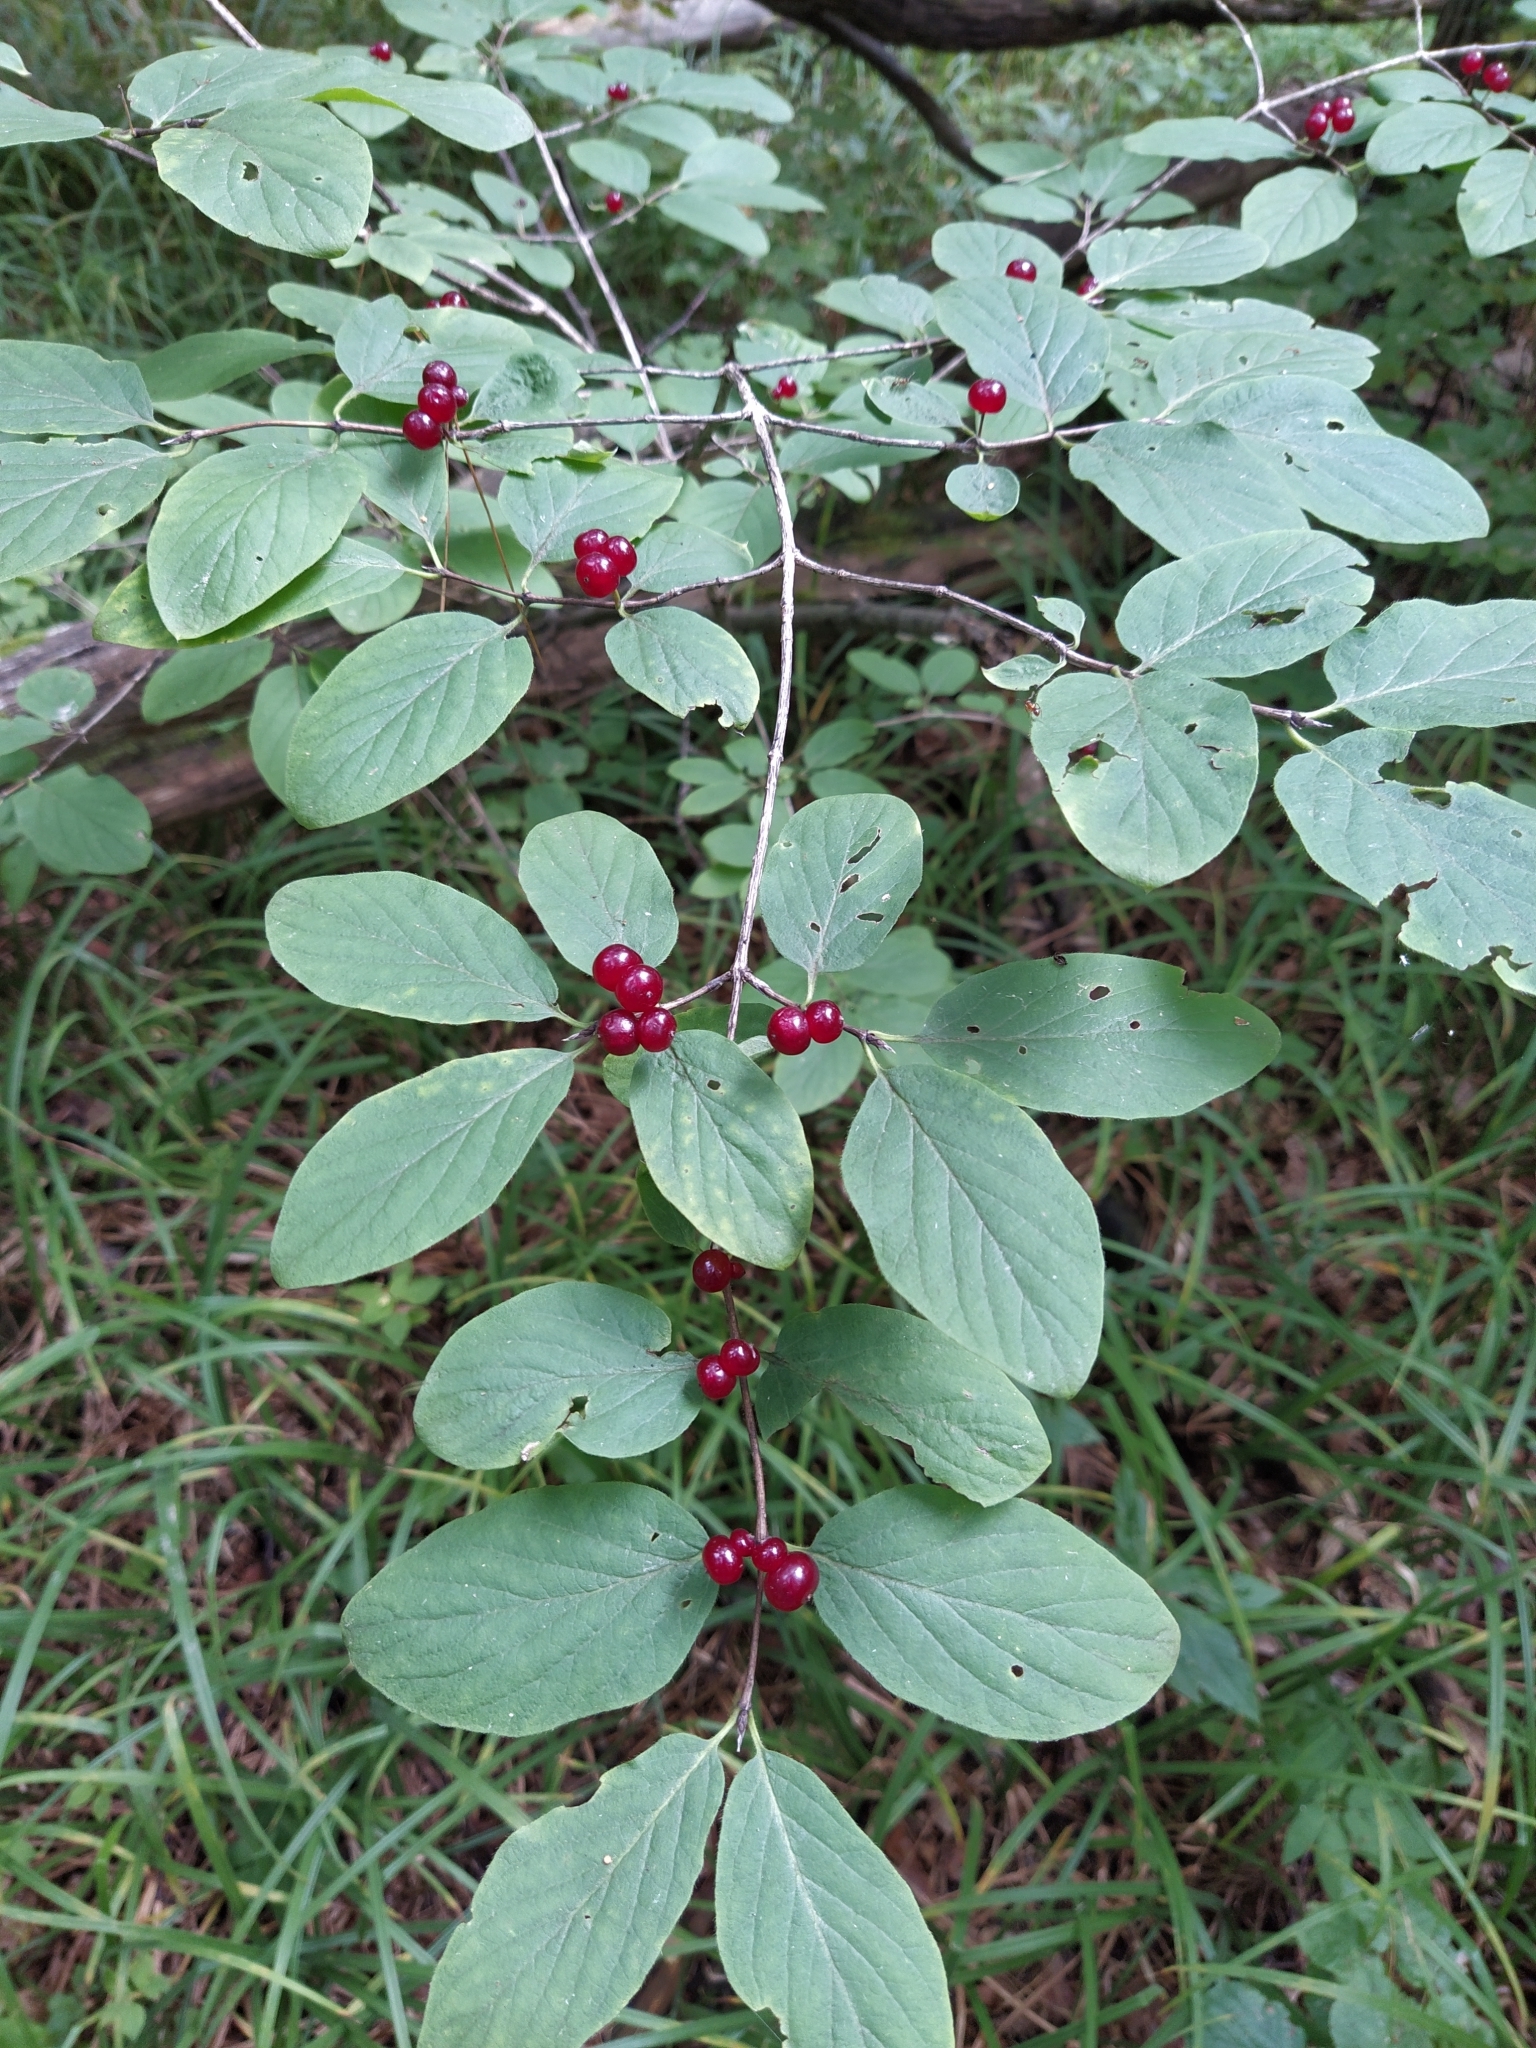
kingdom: Plantae
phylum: Tracheophyta
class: Magnoliopsida
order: Dipsacales
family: Caprifoliaceae
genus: Lonicera
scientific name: Lonicera xylosteum
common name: Fly honeysuckle
